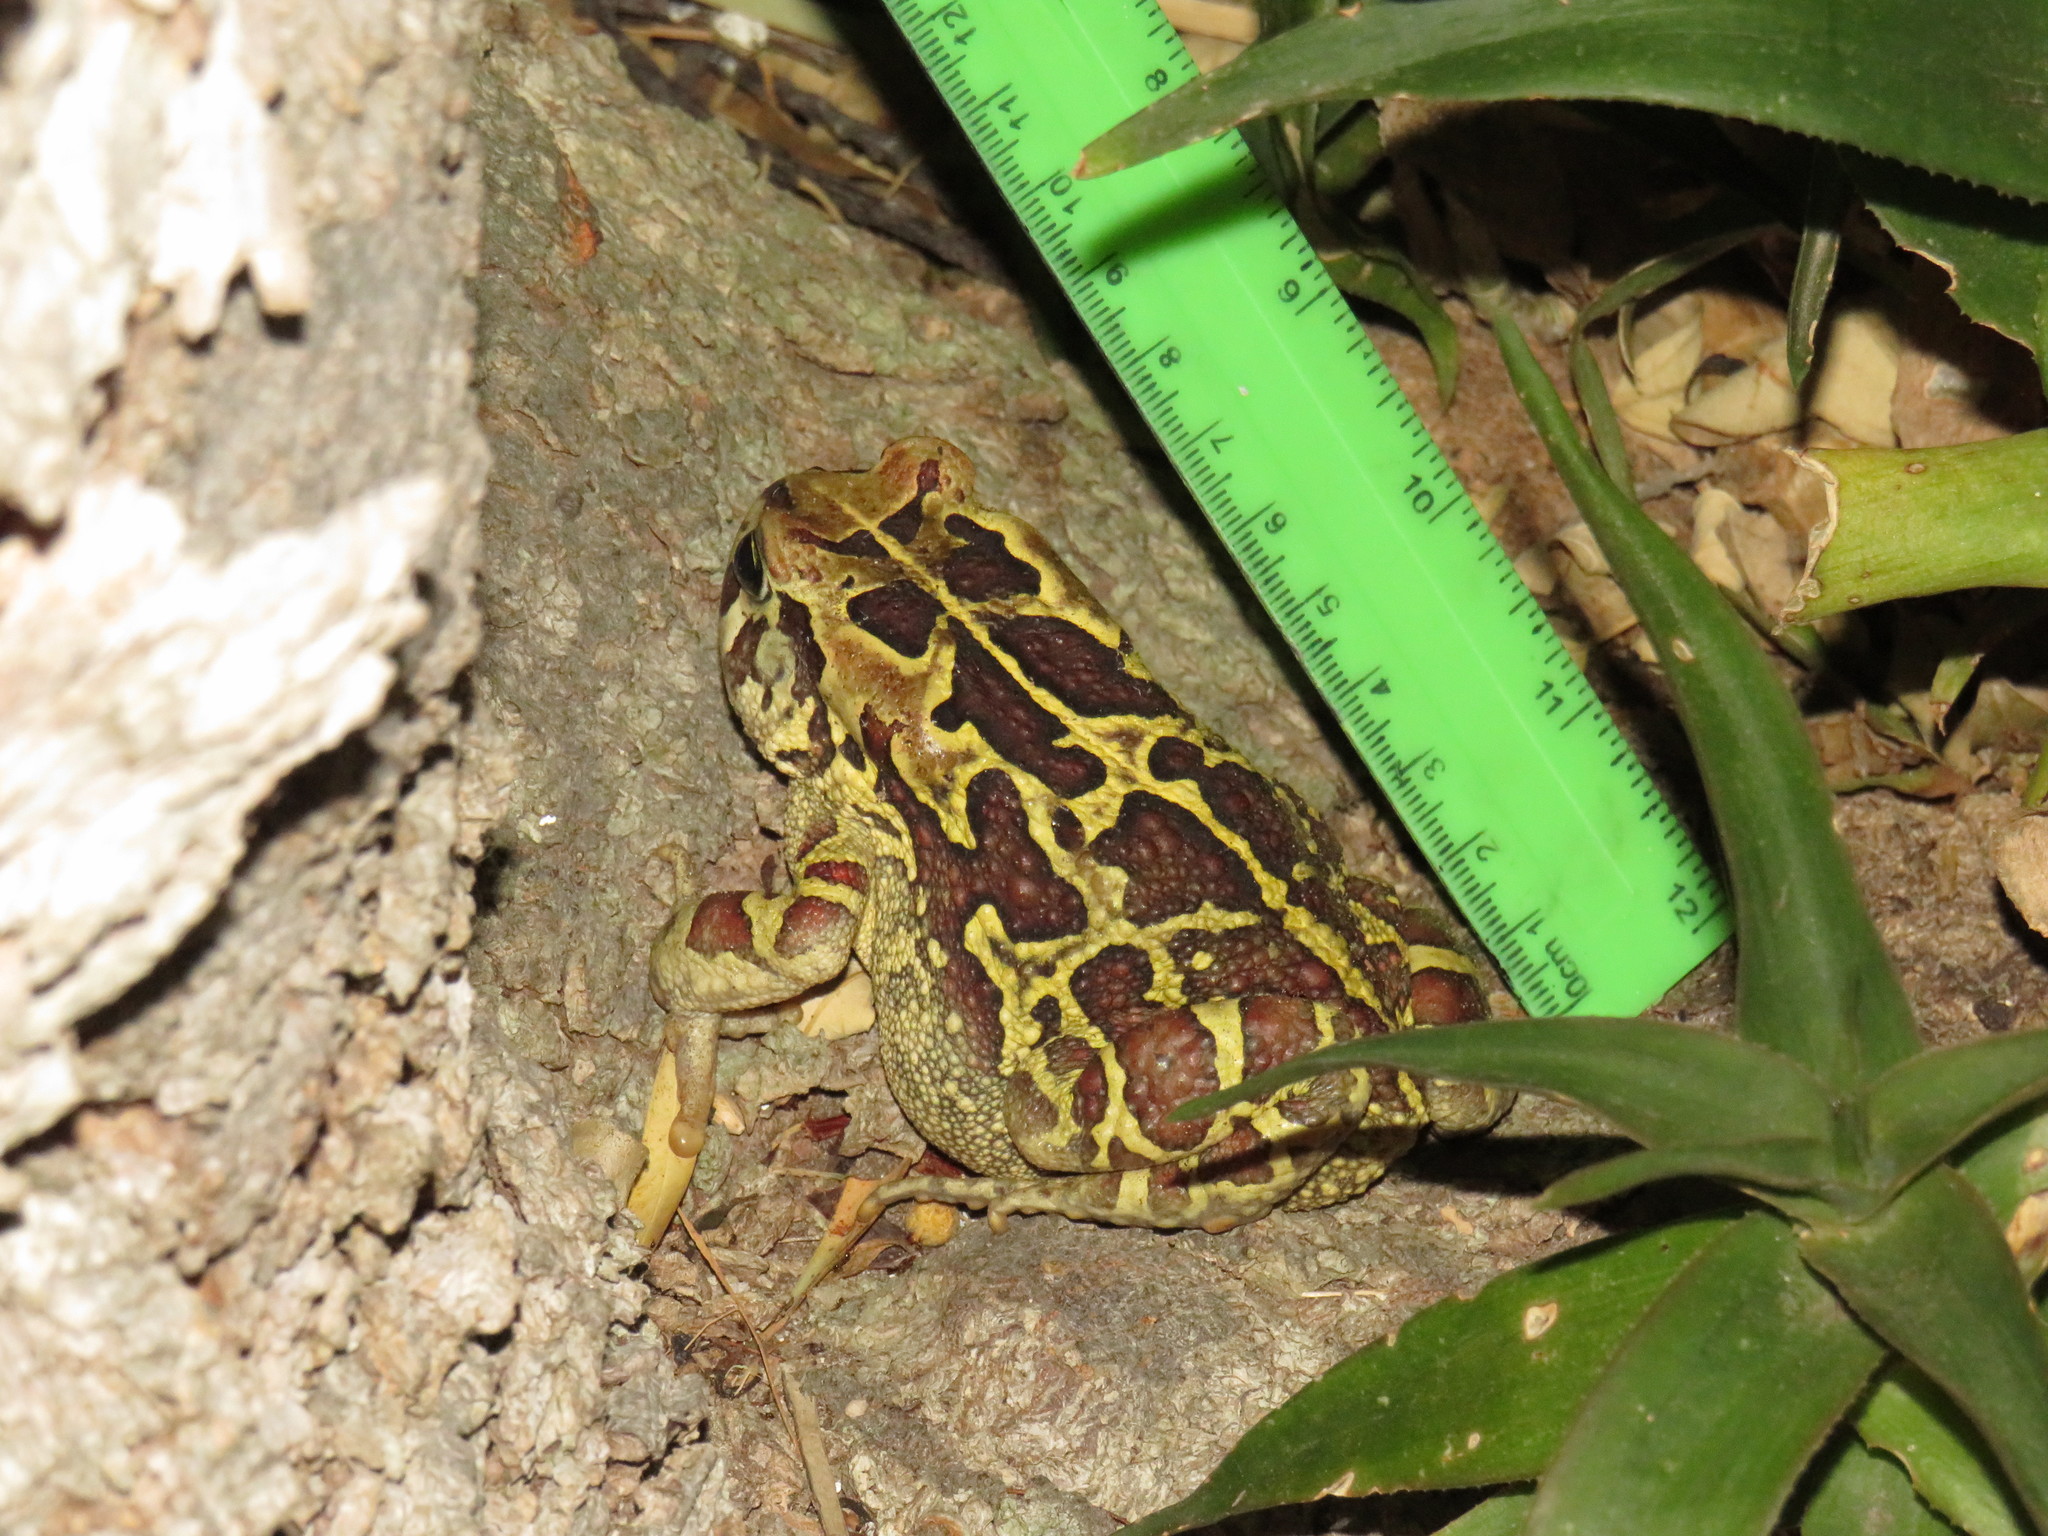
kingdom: Animalia
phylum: Chordata
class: Amphibia
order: Anura
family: Bufonidae
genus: Sclerophrys
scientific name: Sclerophrys pantherina
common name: Panther toad
